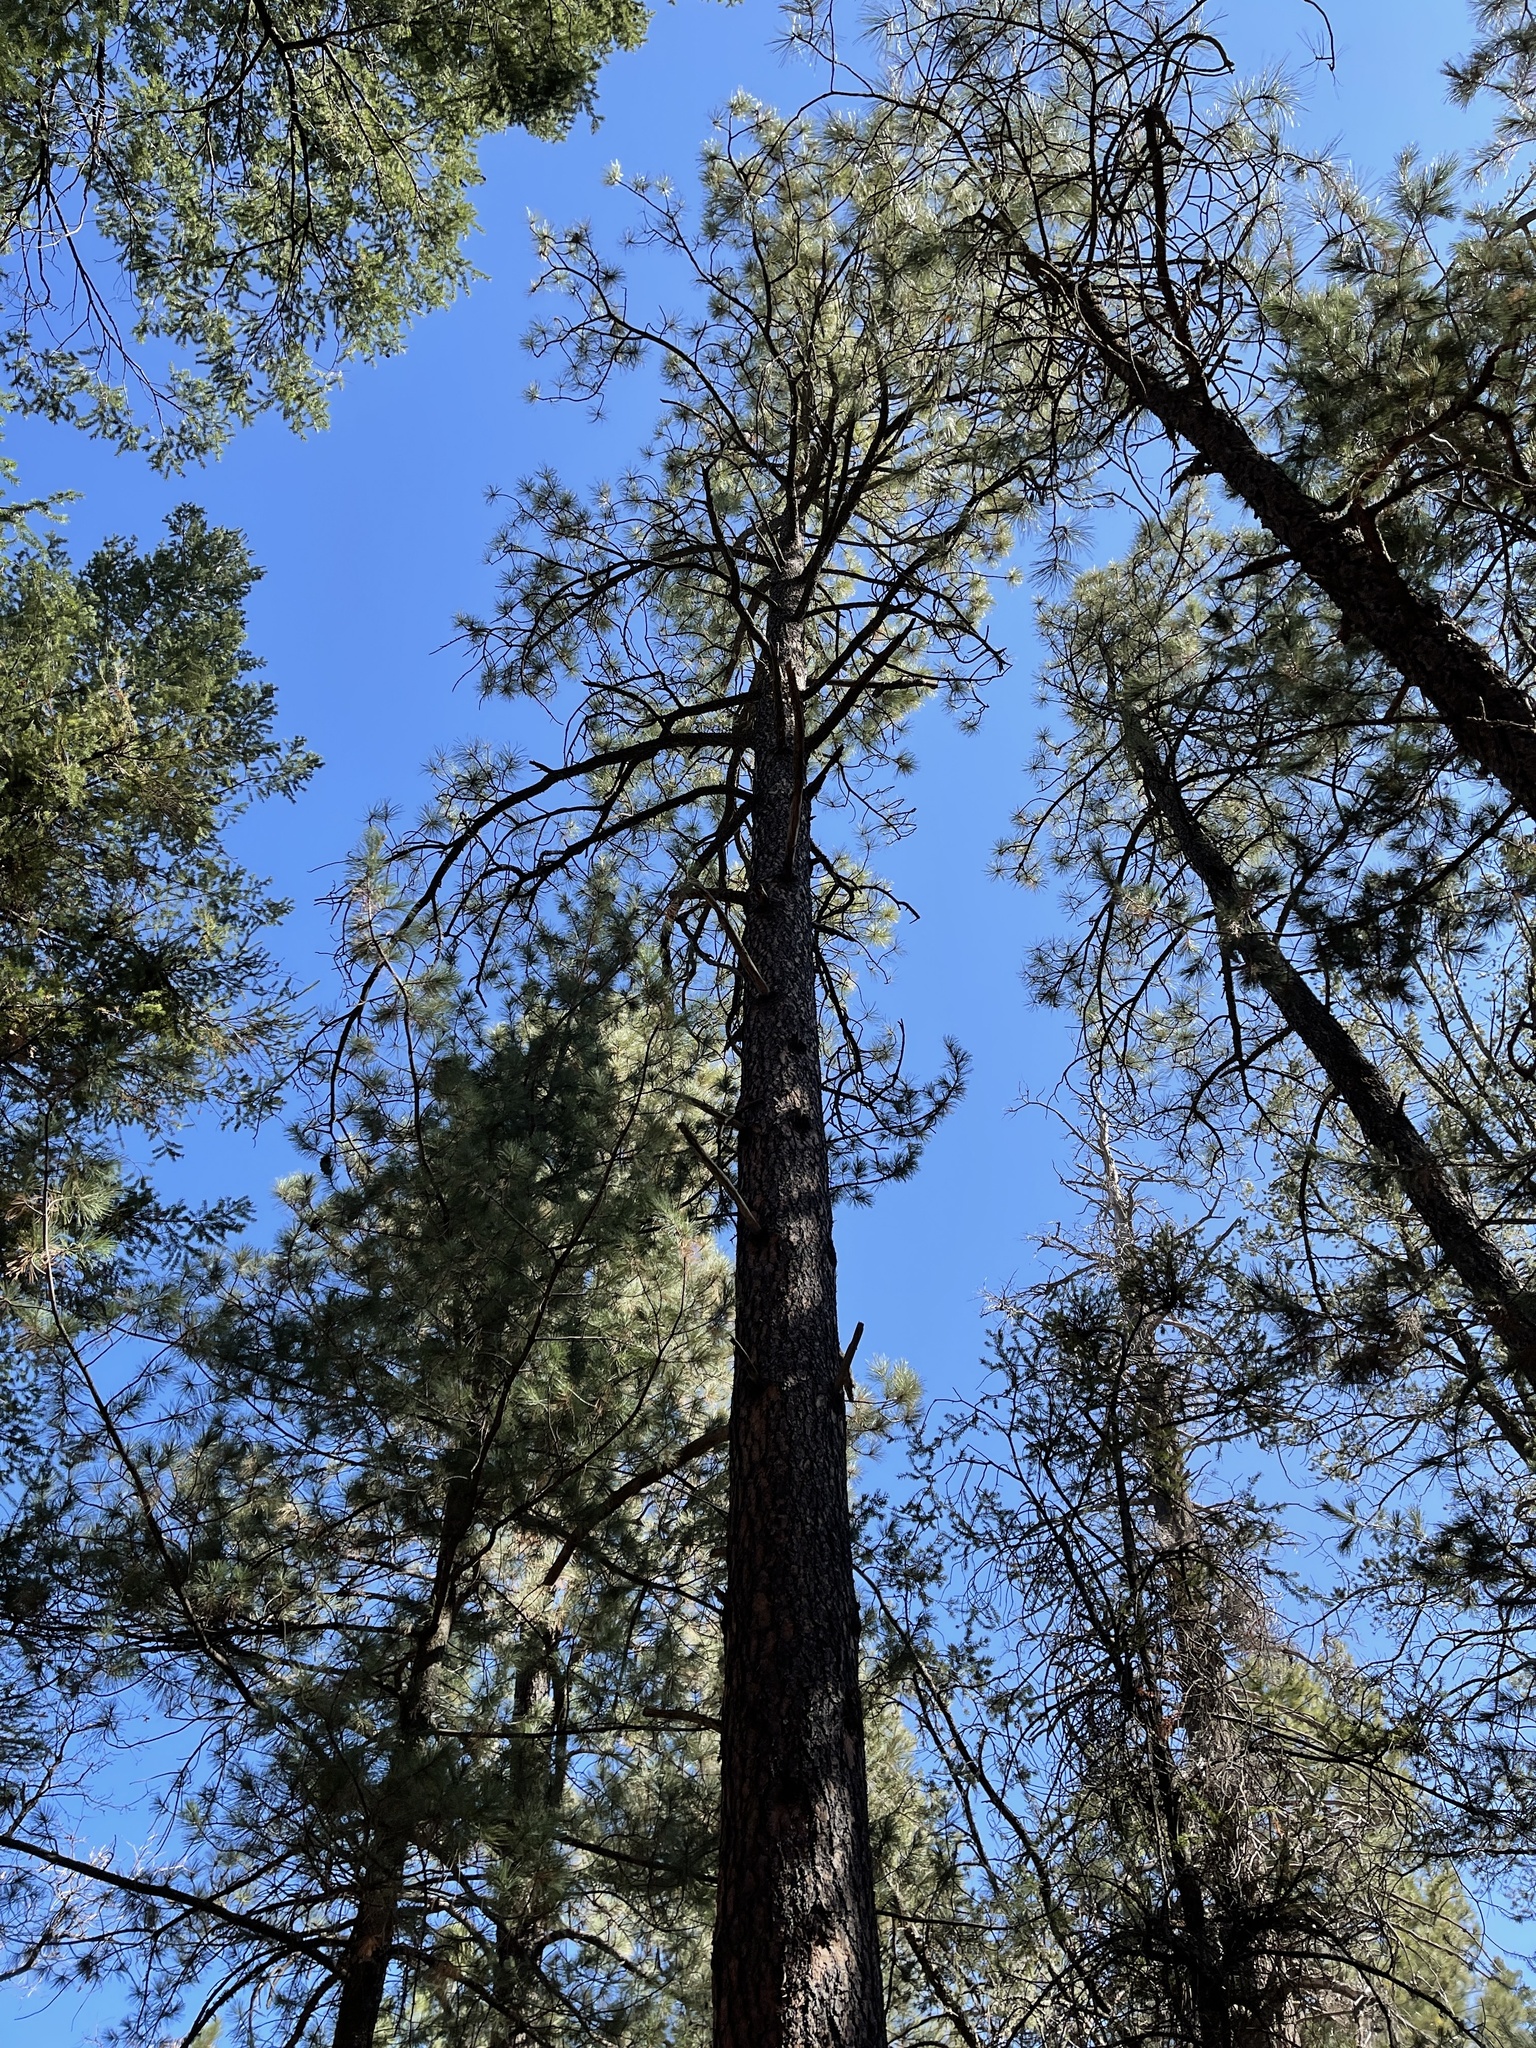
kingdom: Plantae
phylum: Tracheophyta
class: Pinopsida
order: Pinales
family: Pinaceae
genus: Pinus
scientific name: Pinus ponderosa
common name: Western yellow-pine
